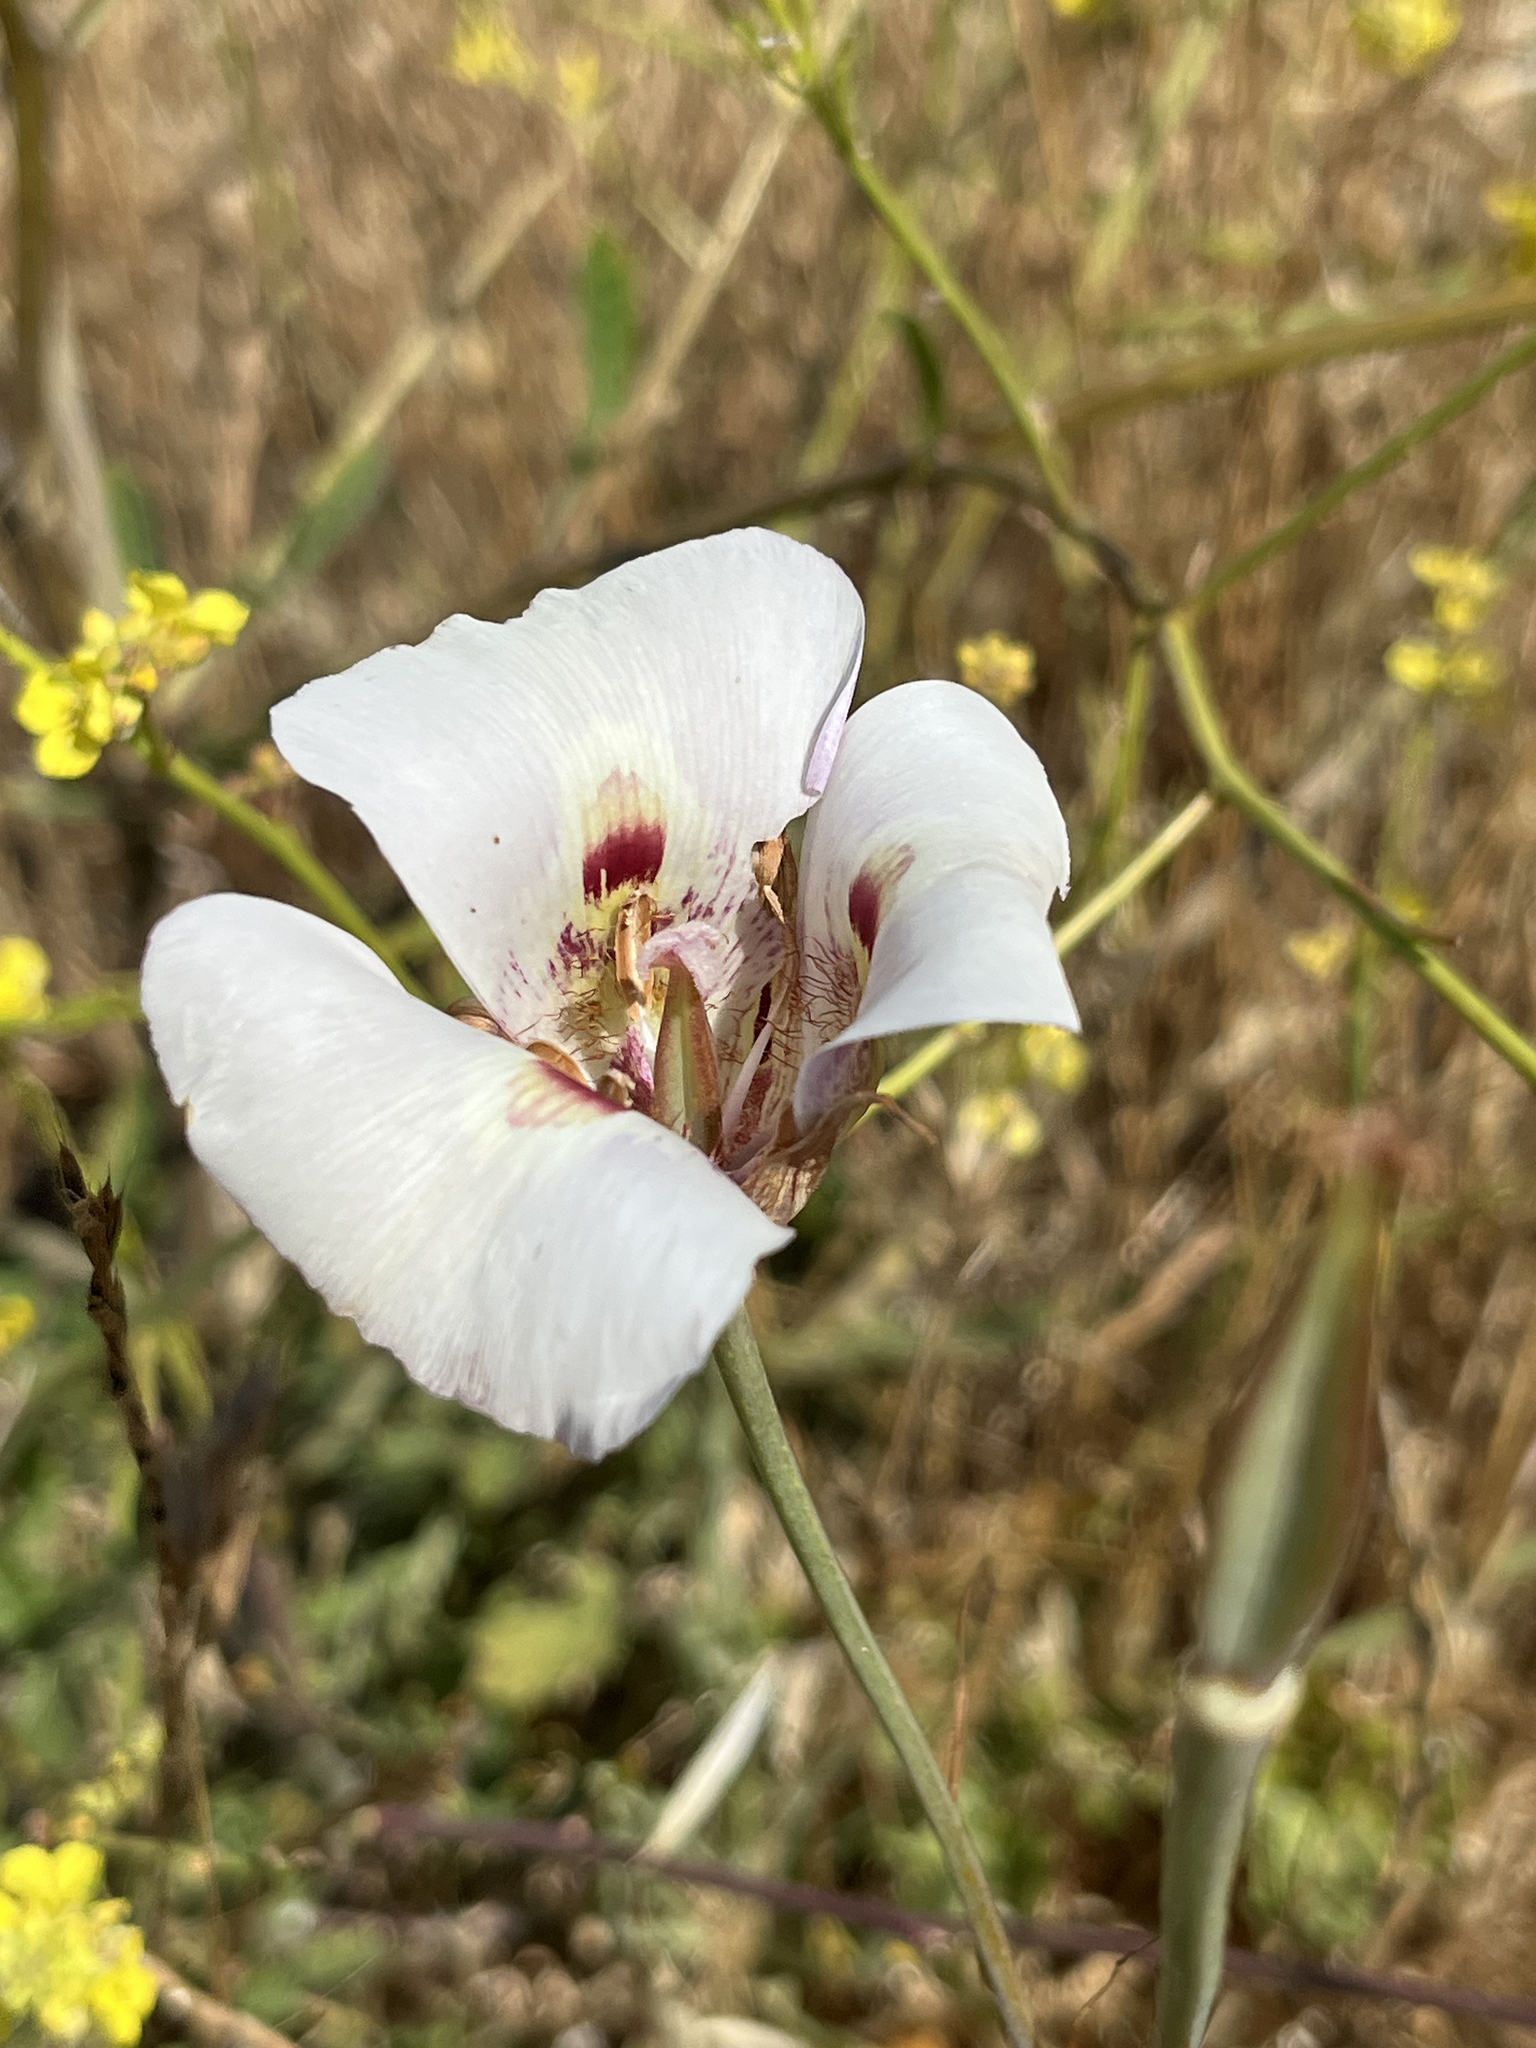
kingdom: Plantae
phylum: Tracheophyta
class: Liliopsida
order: Liliales
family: Liliaceae
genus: Calochortus
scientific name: Calochortus argillosus
